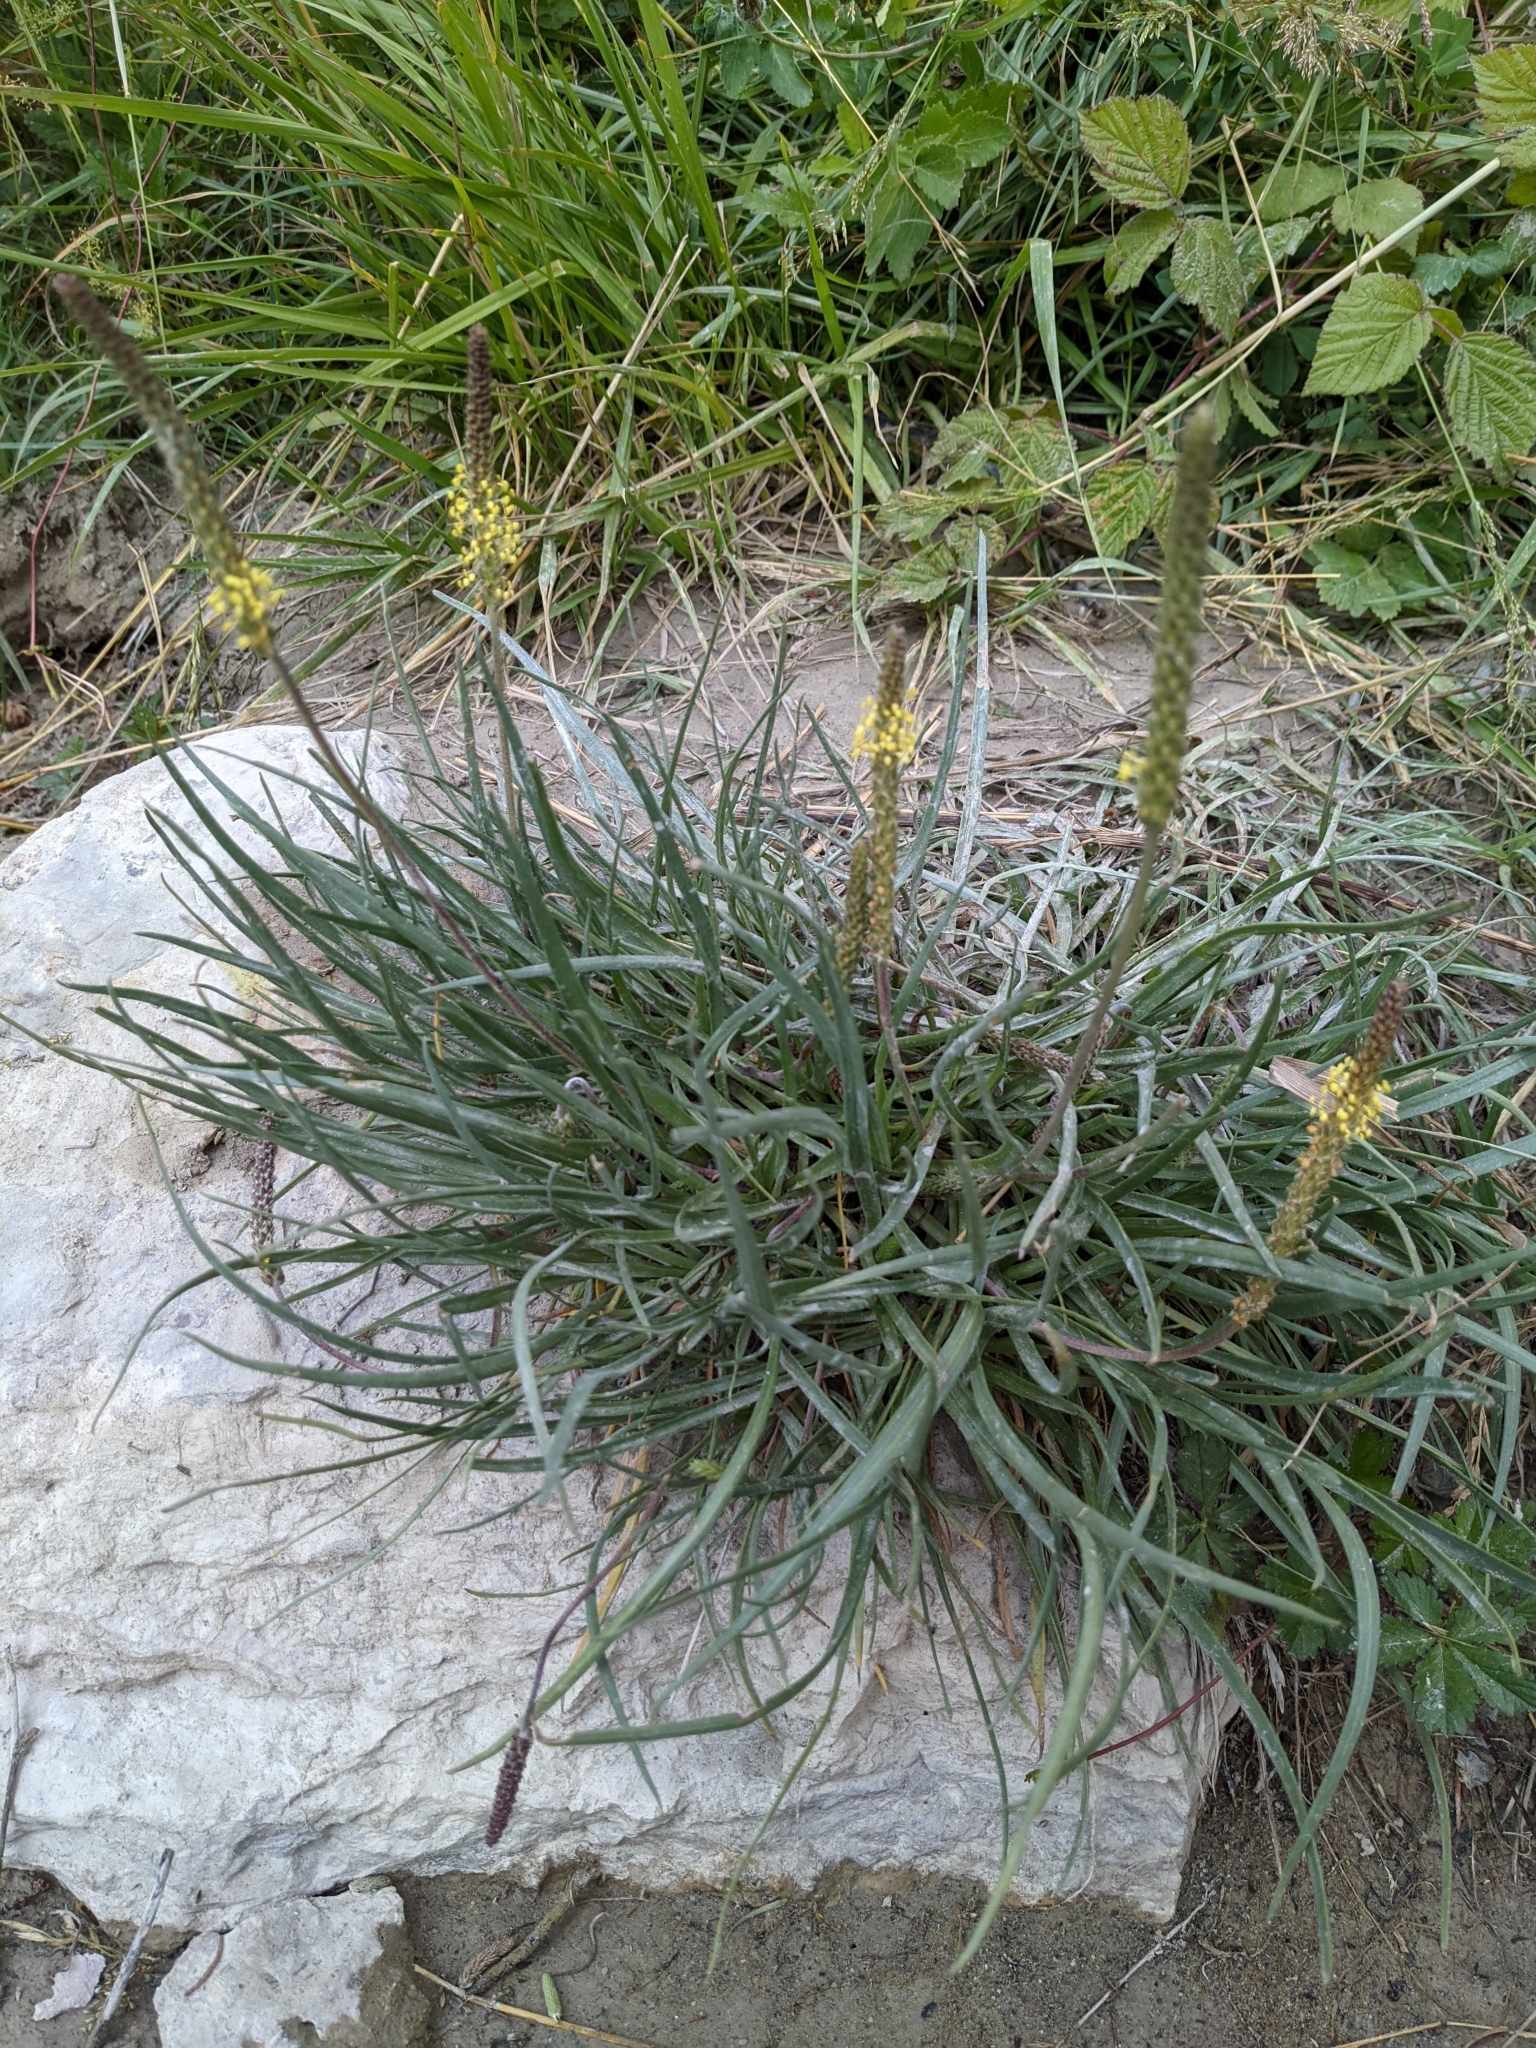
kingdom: Plantae
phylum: Tracheophyta
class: Magnoliopsida
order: Lamiales
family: Plantaginaceae
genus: Plantago
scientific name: Plantago maritima
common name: Sea plantain
